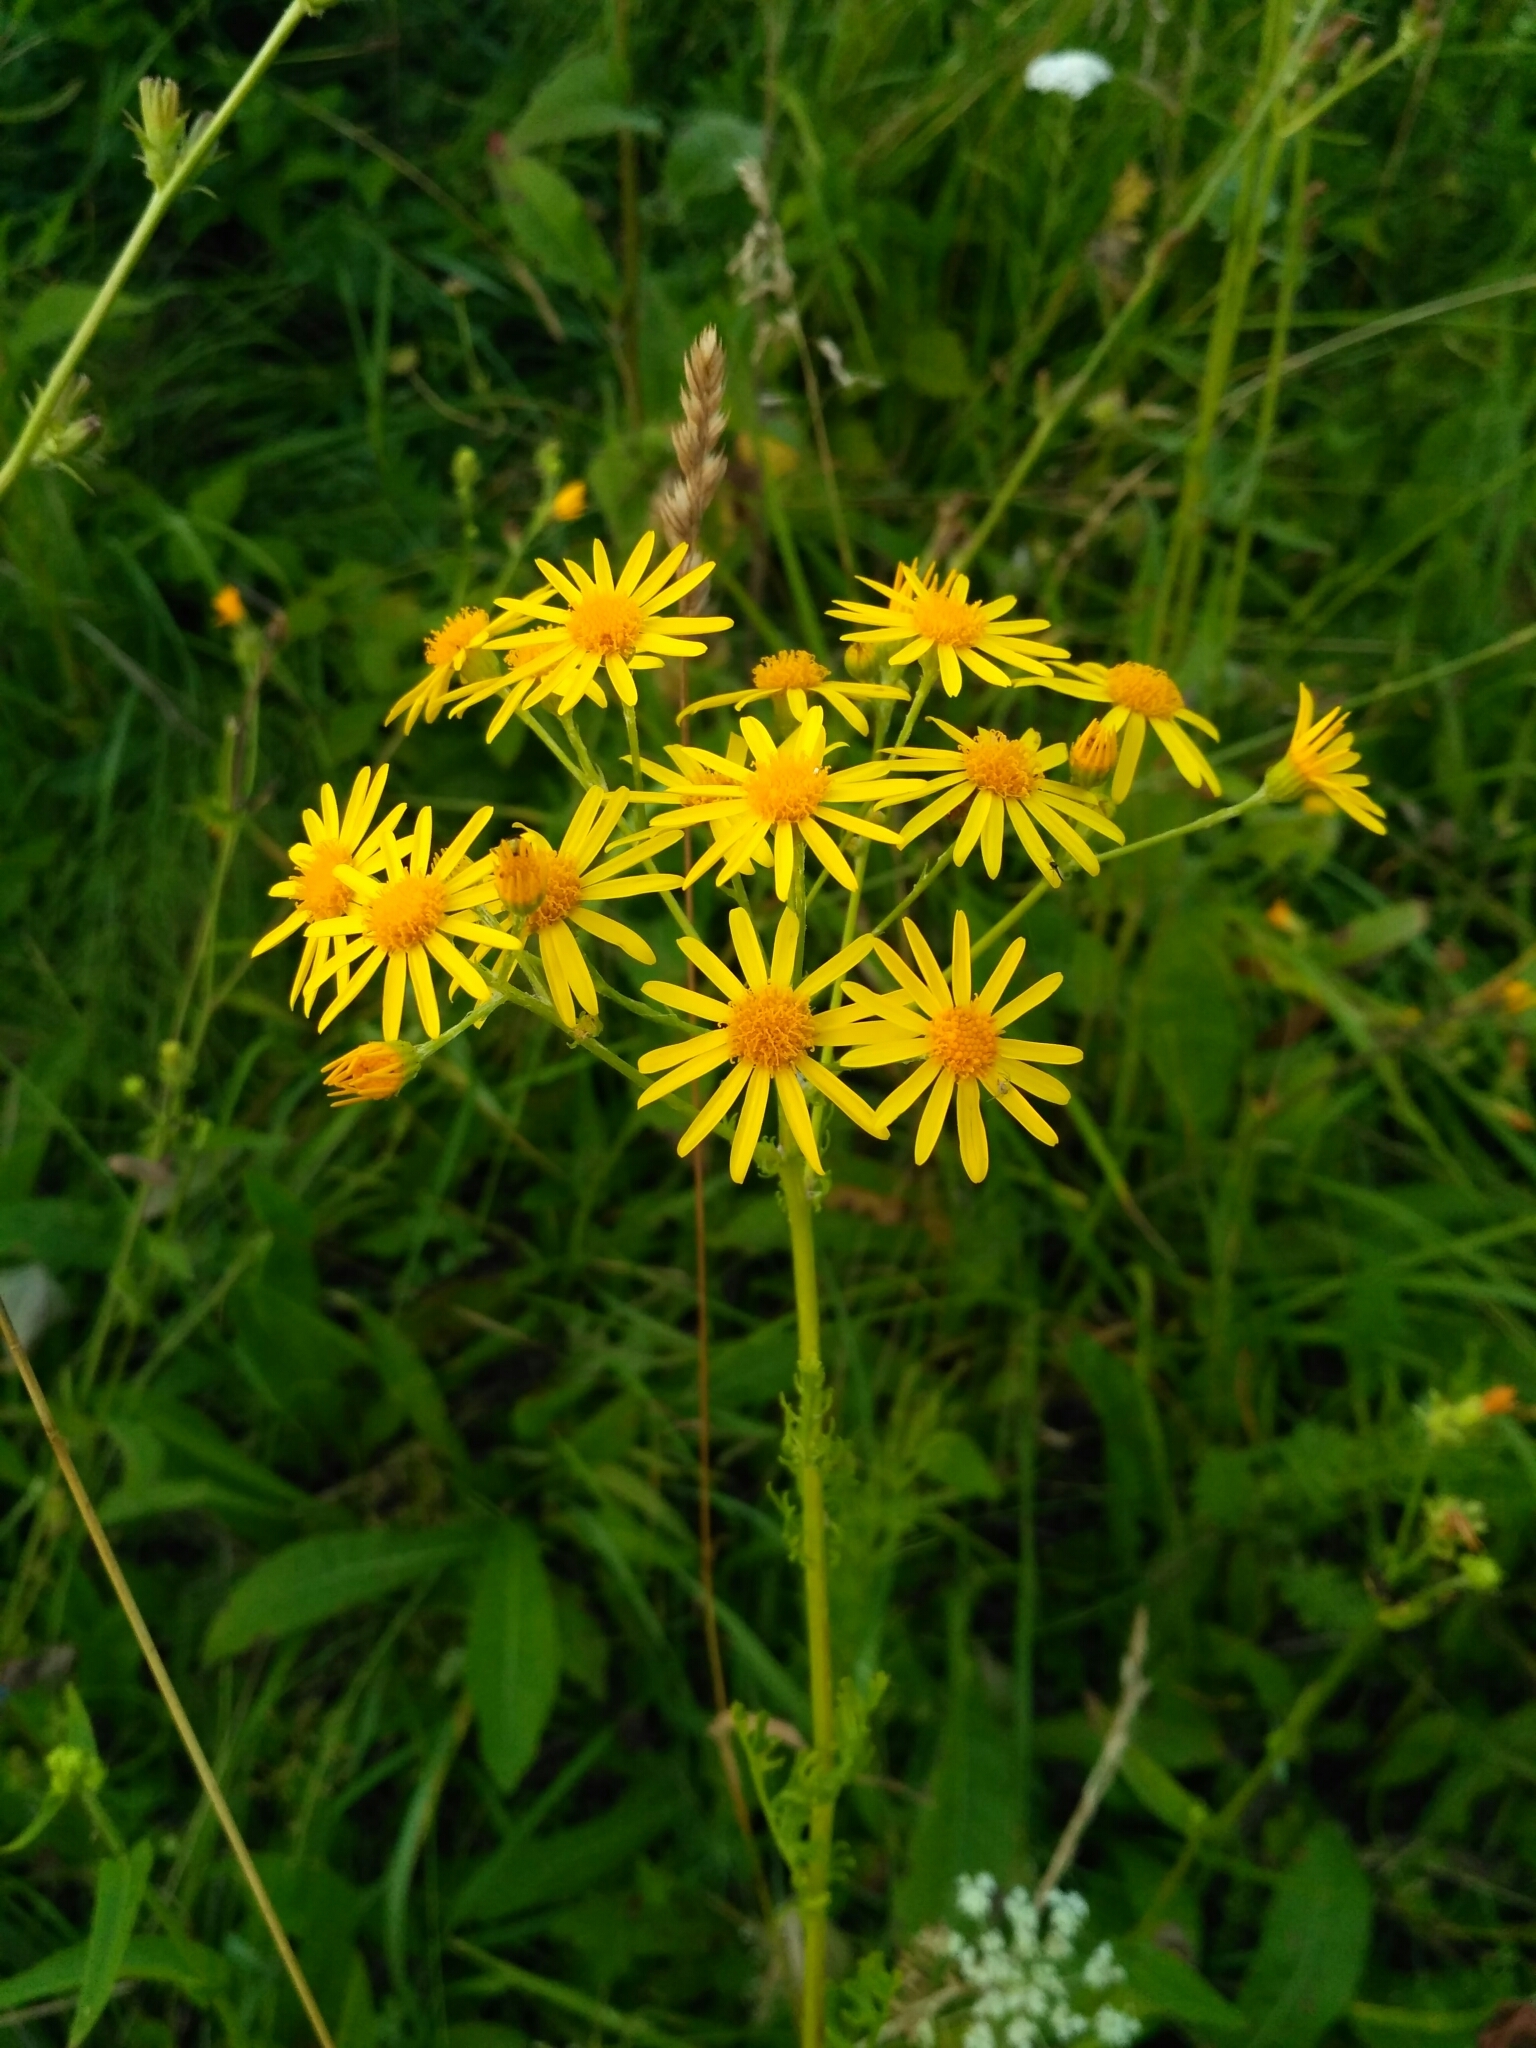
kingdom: Plantae
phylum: Tracheophyta
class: Magnoliopsida
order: Asterales
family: Asteraceae
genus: Jacobaea
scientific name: Jacobaea vulgaris
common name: Stinking willie
